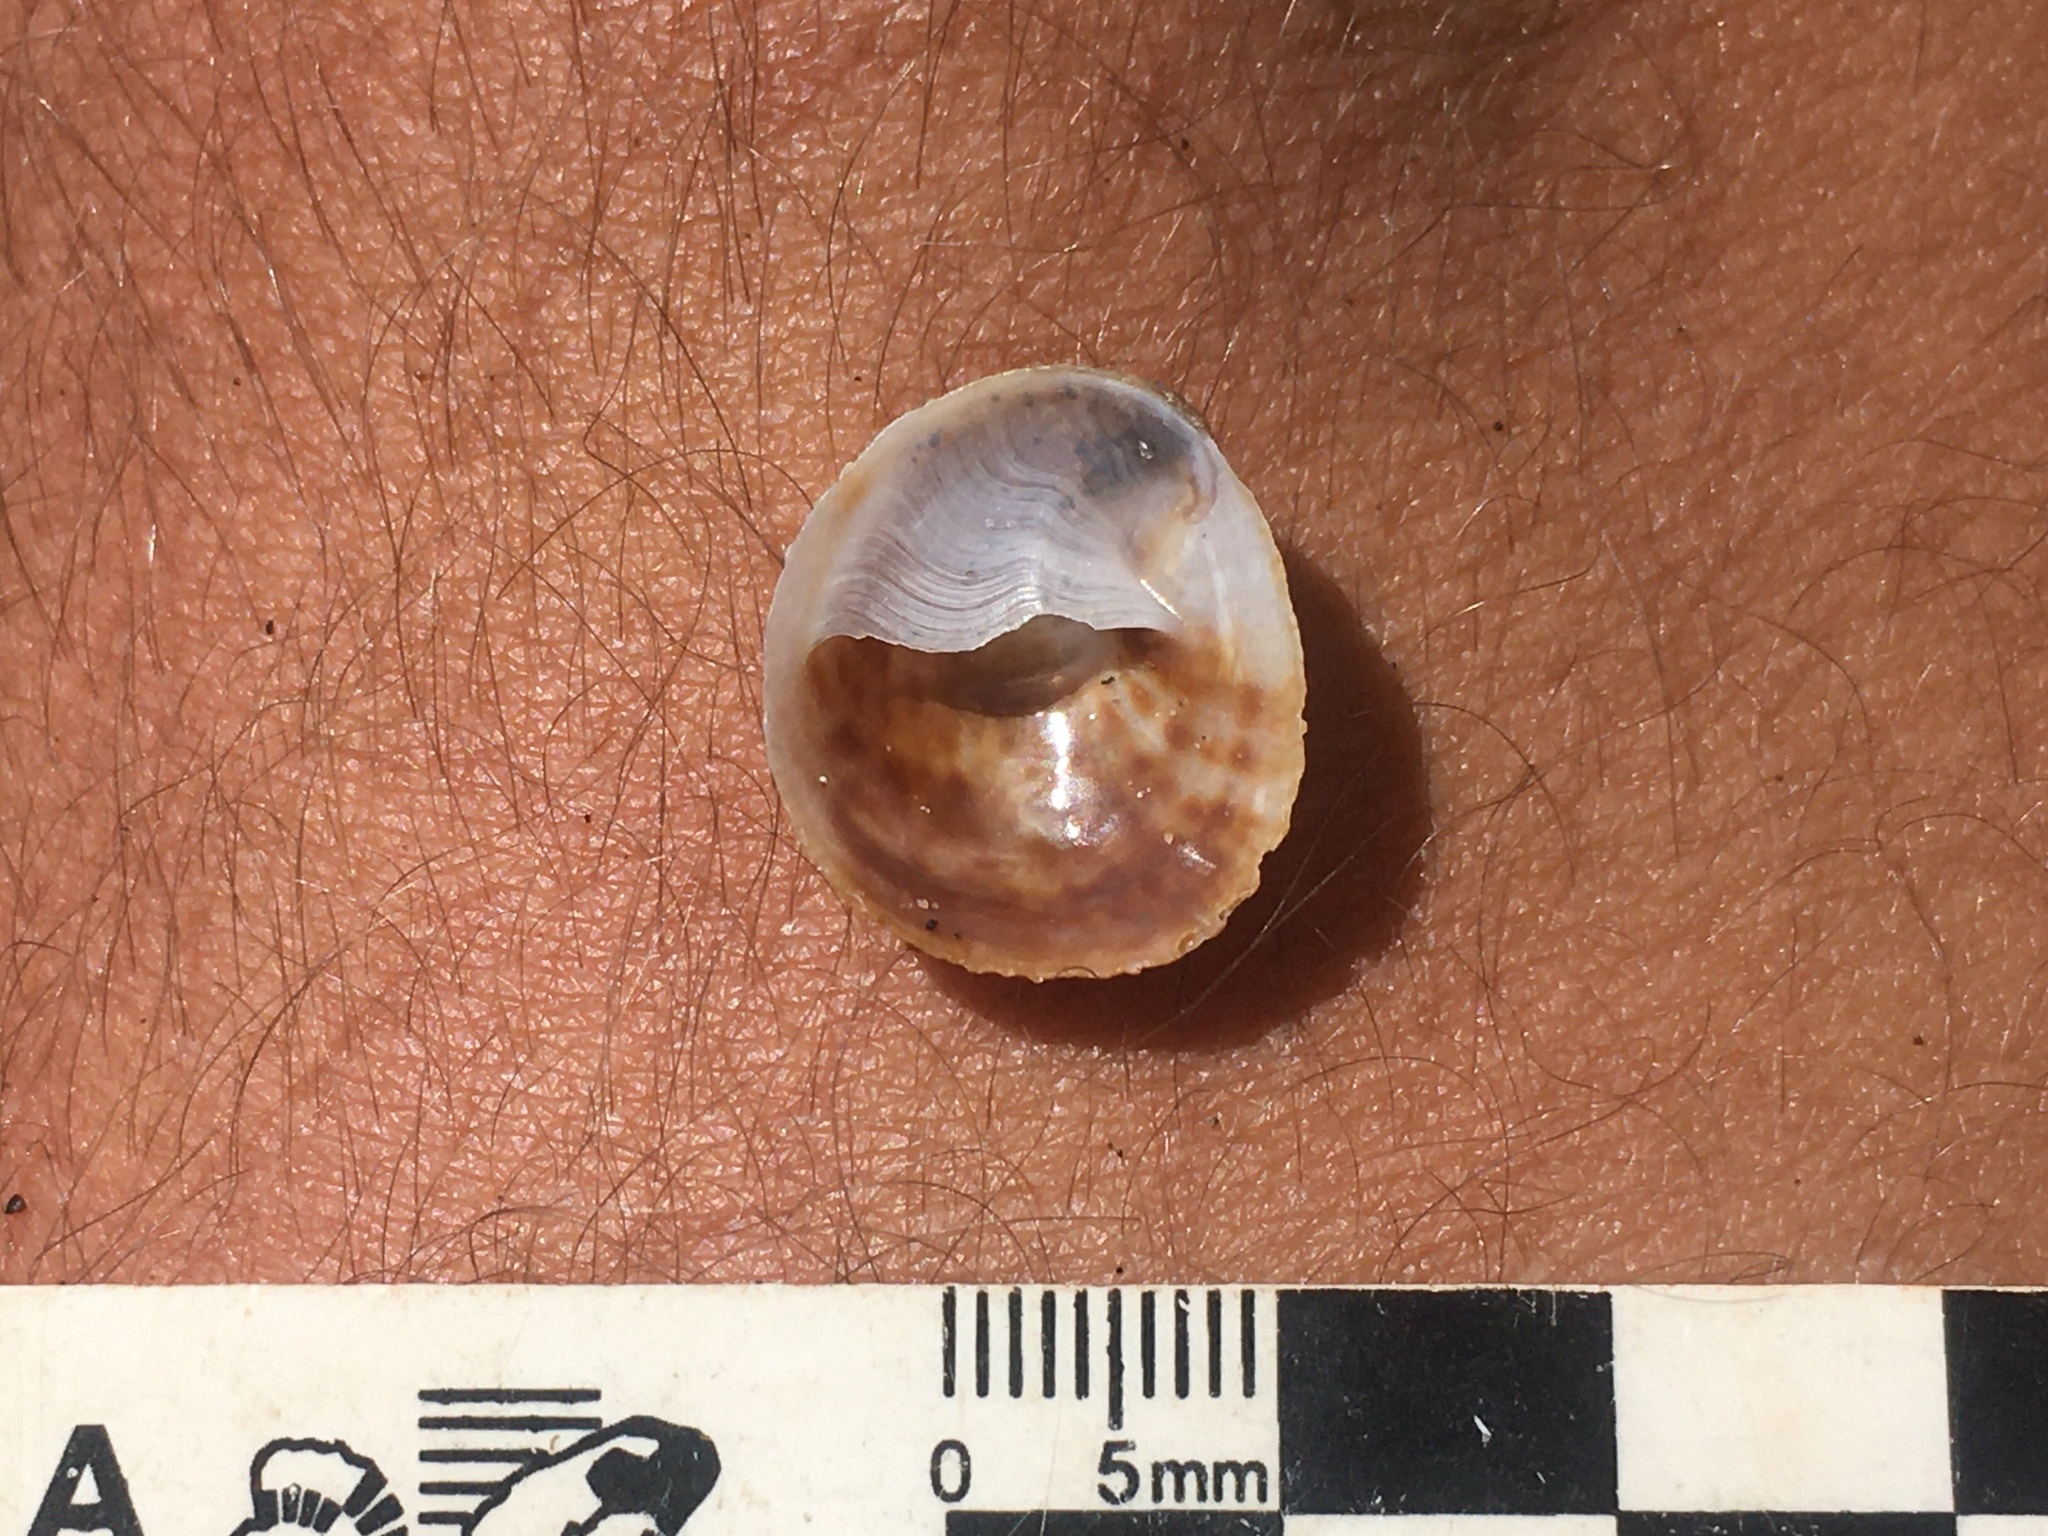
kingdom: Animalia
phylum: Mollusca
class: Gastropoda
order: Littorinimorpha
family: Calyptraeidae
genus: Bostrycapulus
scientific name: Bostrycapulus odites
